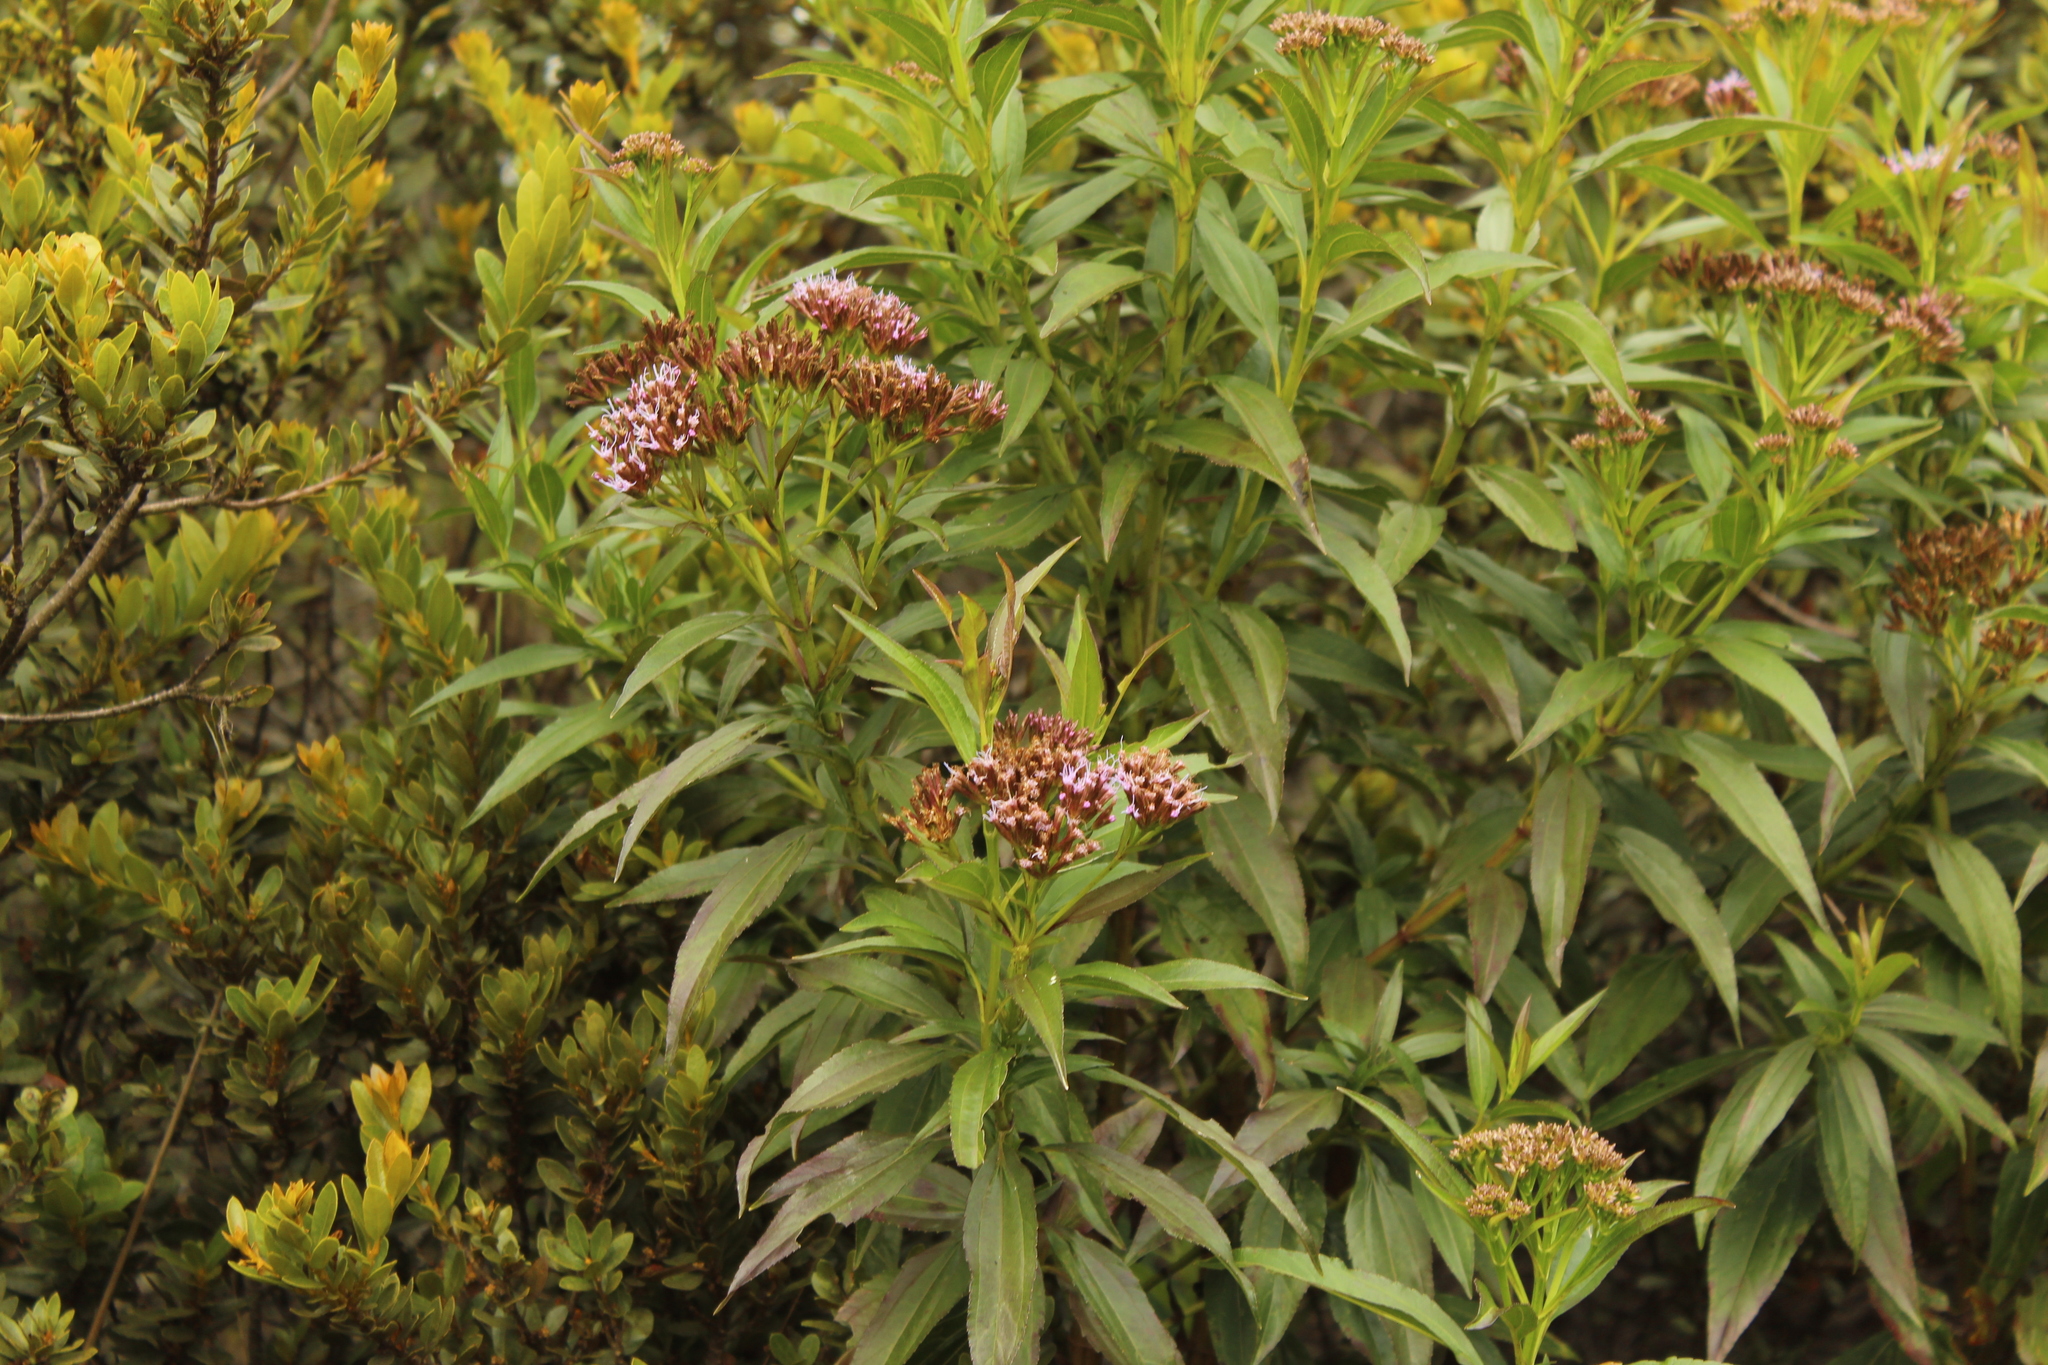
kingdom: Plantae
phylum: Tracheophyta
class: Magnoliopsida
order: Asterales
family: Asteraceae
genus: Chromolaena
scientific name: Chromolaena perglabra
